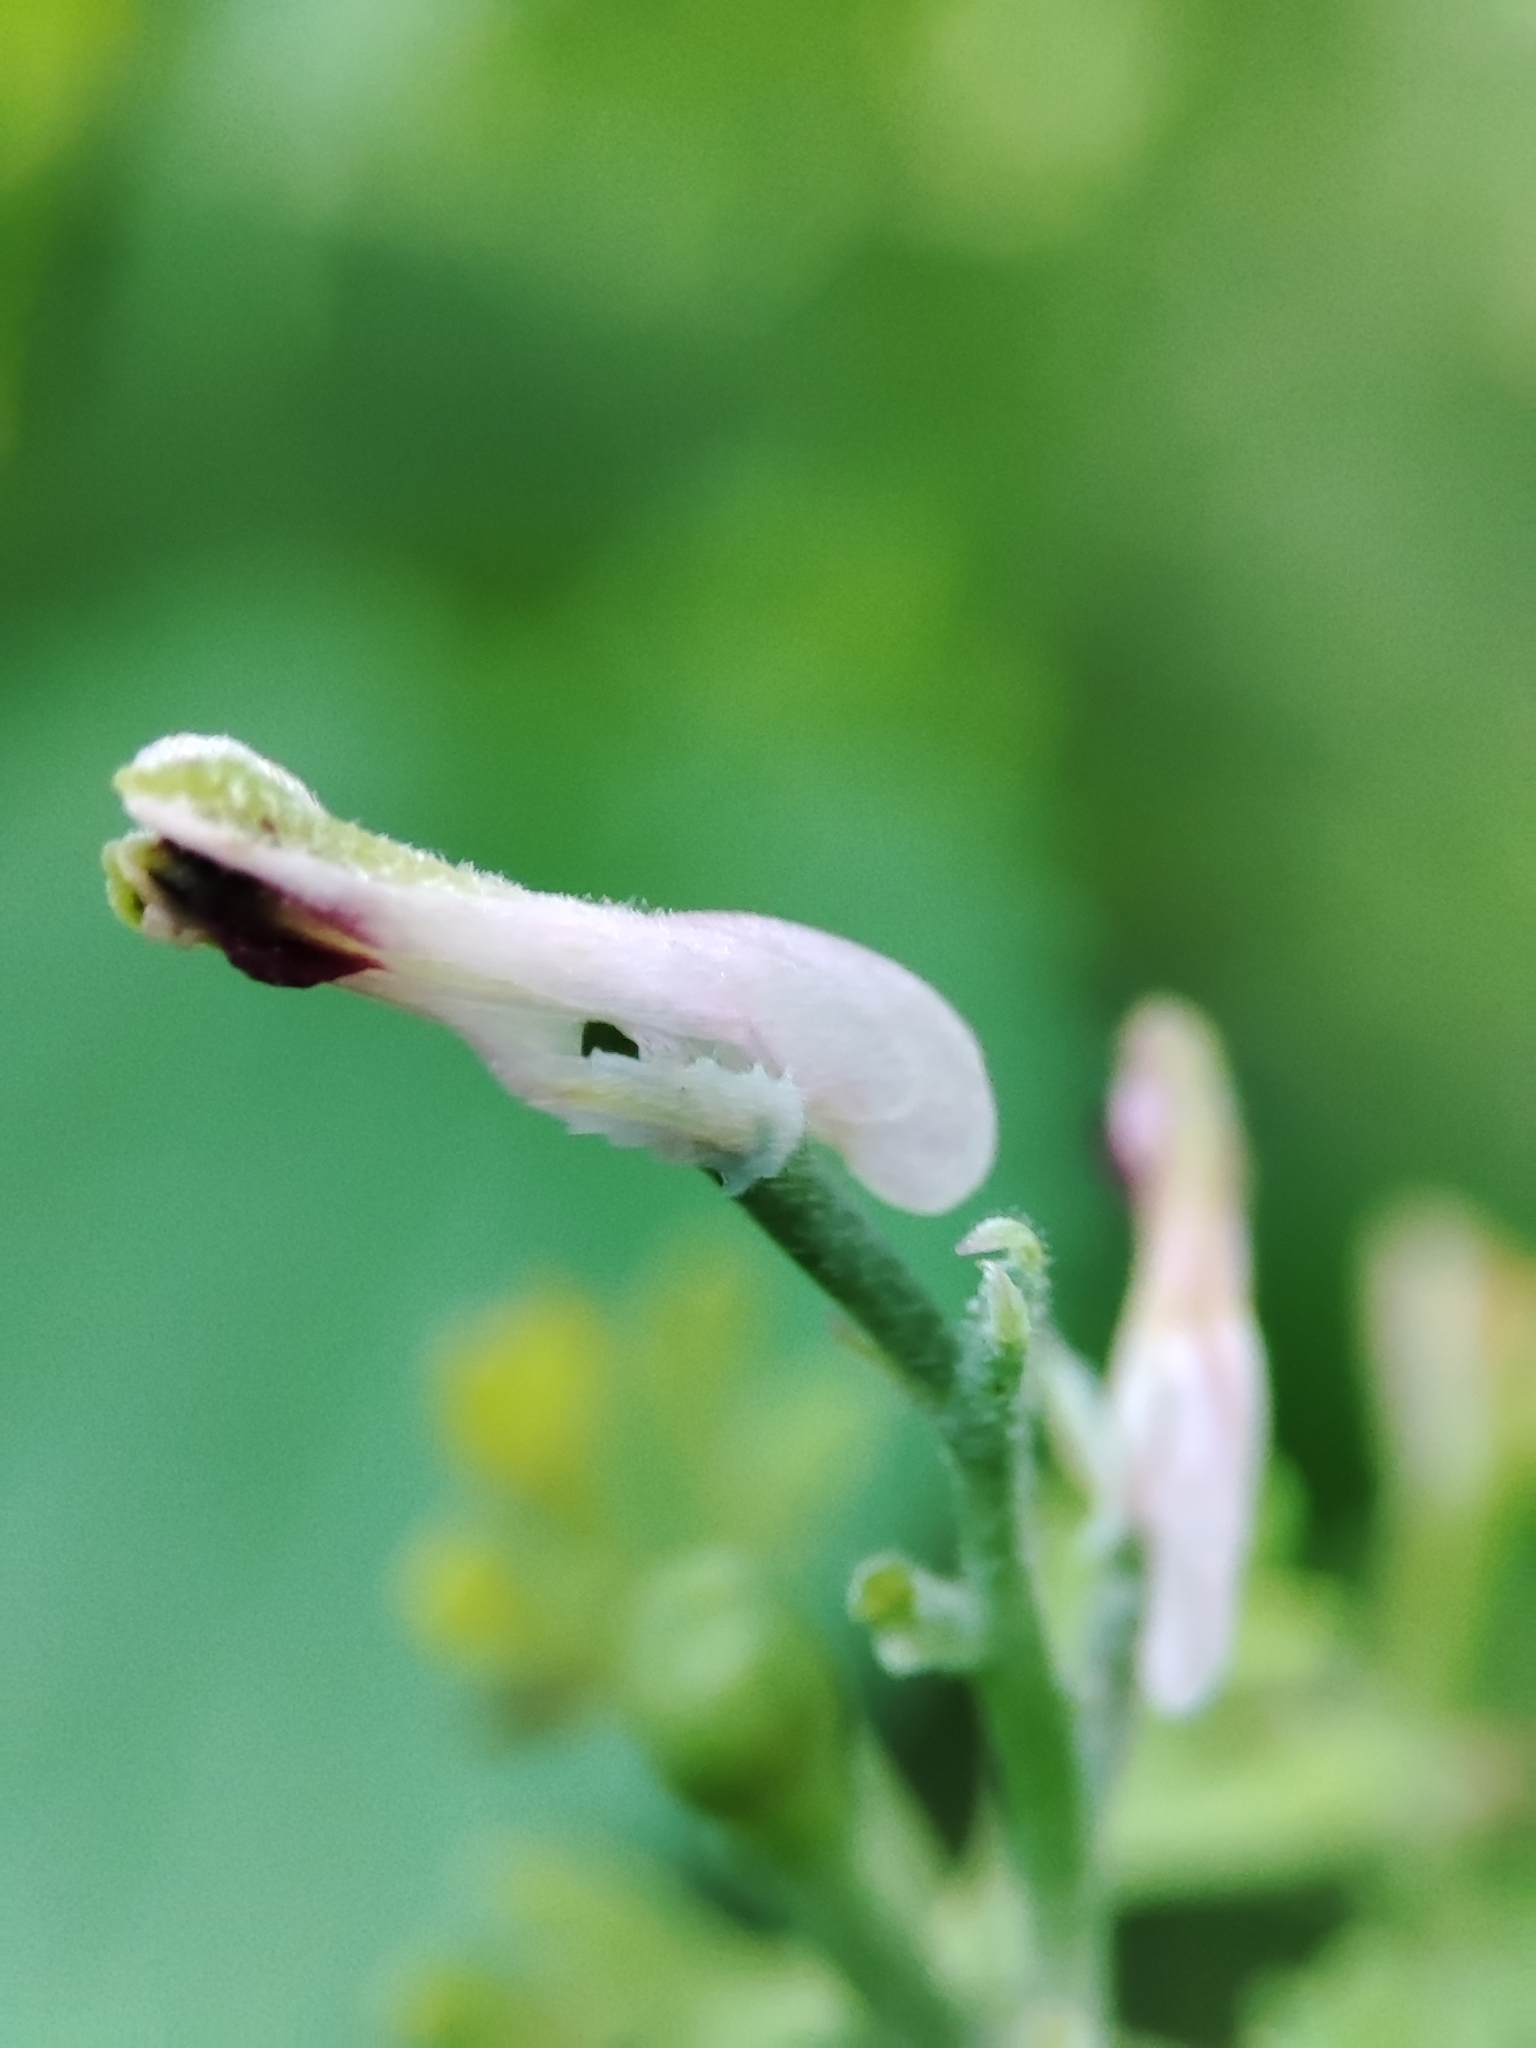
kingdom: Plantae
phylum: Tracheophyta
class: Magnoliopsida
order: Ranunculales
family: Papaveraceae
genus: Fumaria
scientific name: Fumaria officinalis
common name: Common fumitory
